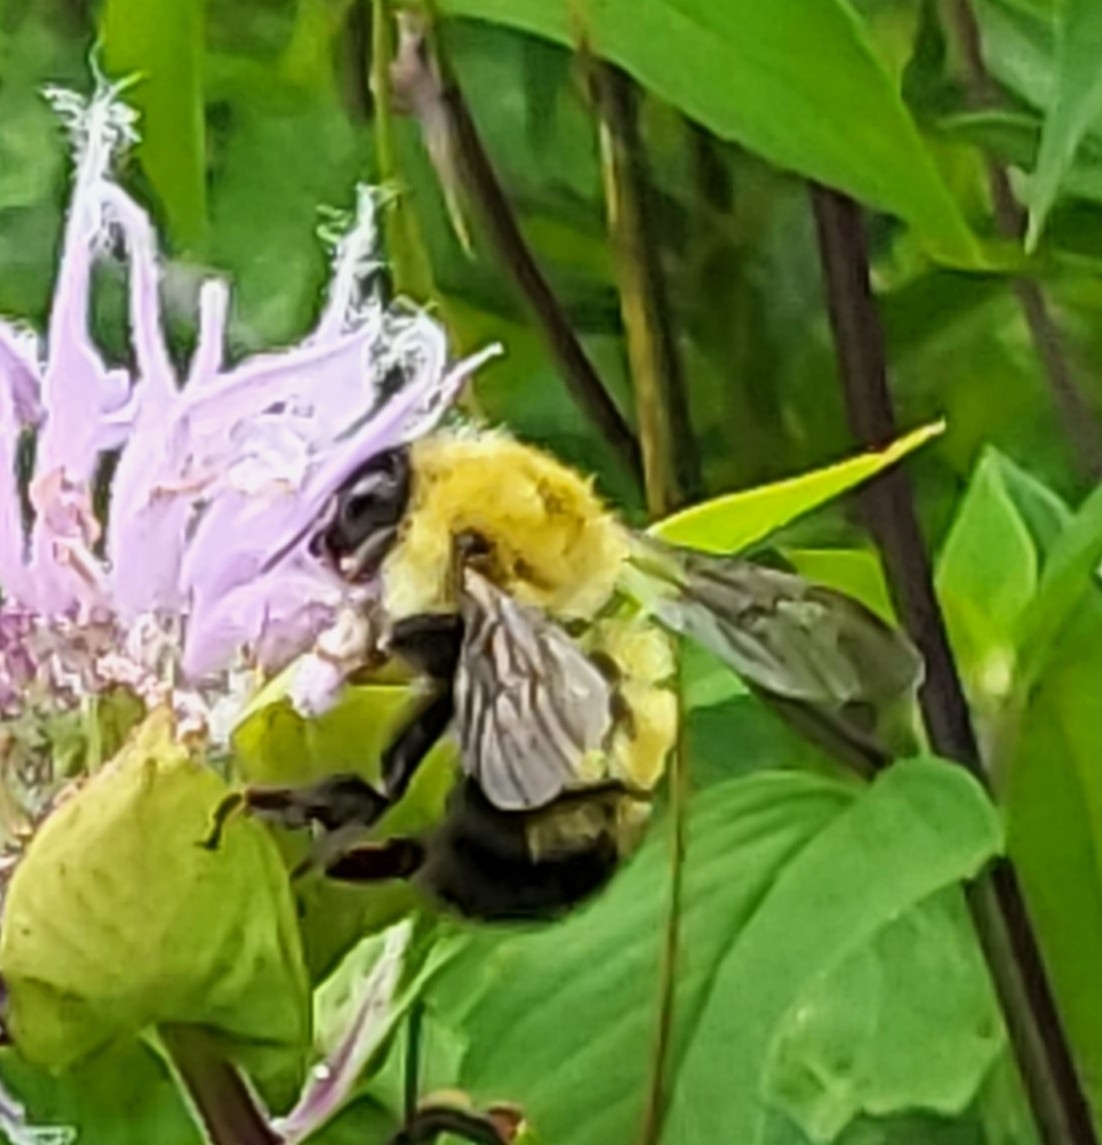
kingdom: Animalia
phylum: Arthropoda
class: Insecta
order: Hymenoptera
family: Apidae
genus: Bombus
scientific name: Bombus perplexus
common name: Confusing bumble bee
